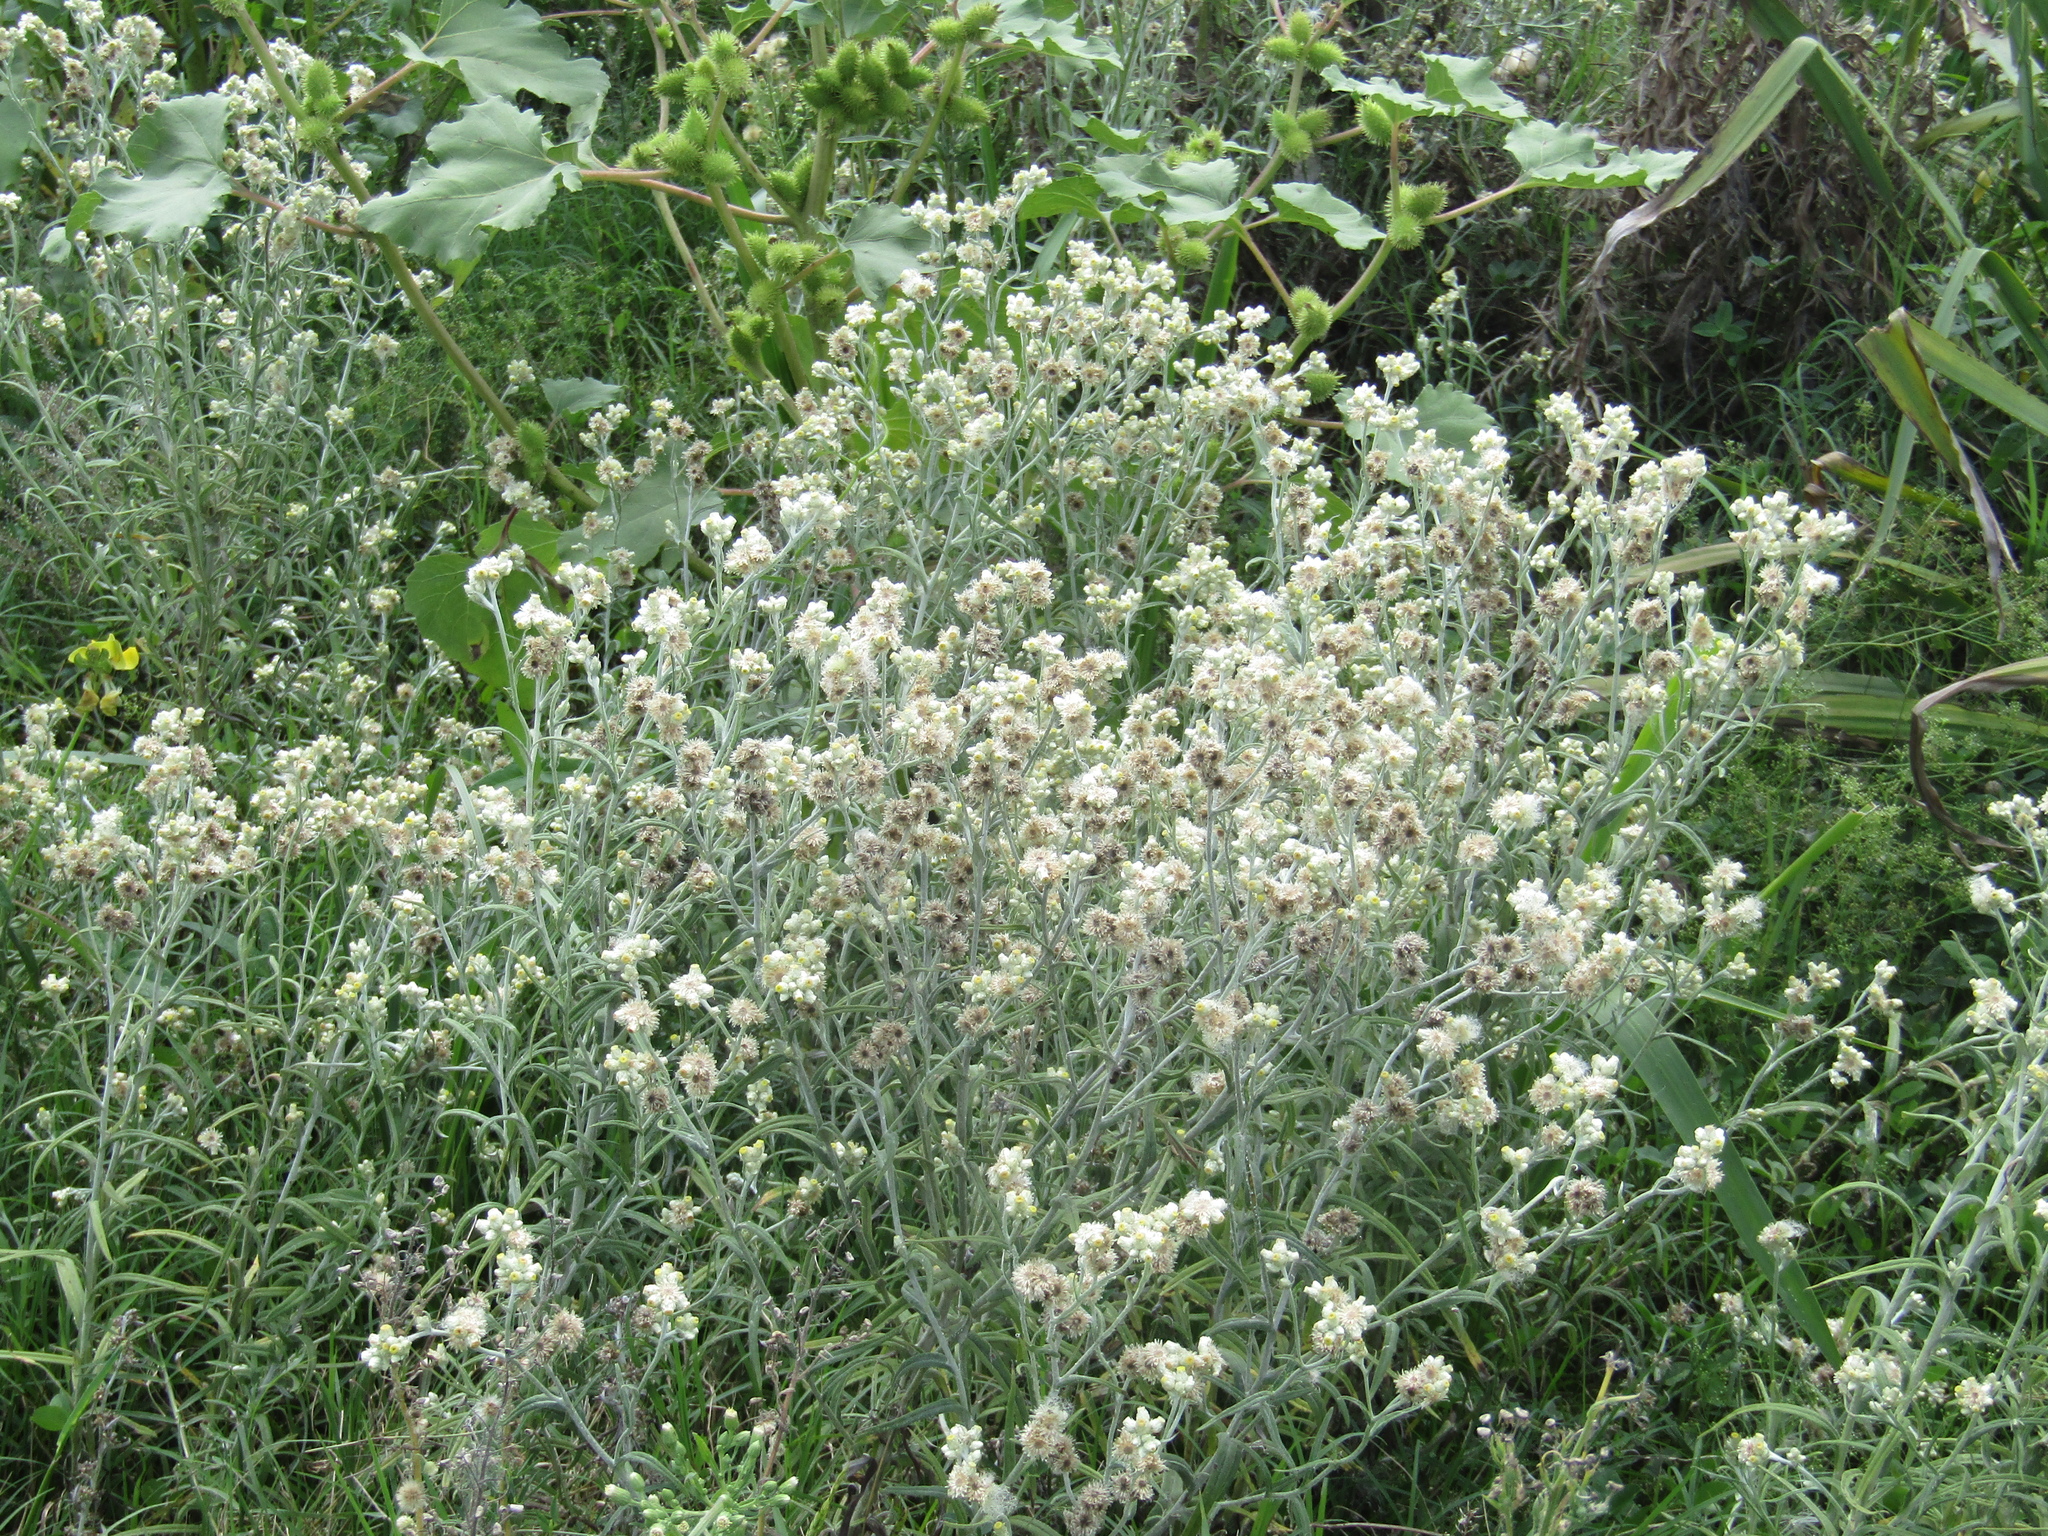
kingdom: Plantae
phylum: Tracheophyta
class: Magnoliopsida
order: Asterales
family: Asteraceae
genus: Pseudognaphalium
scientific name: Pseudognaphalium gaudichaudianum
